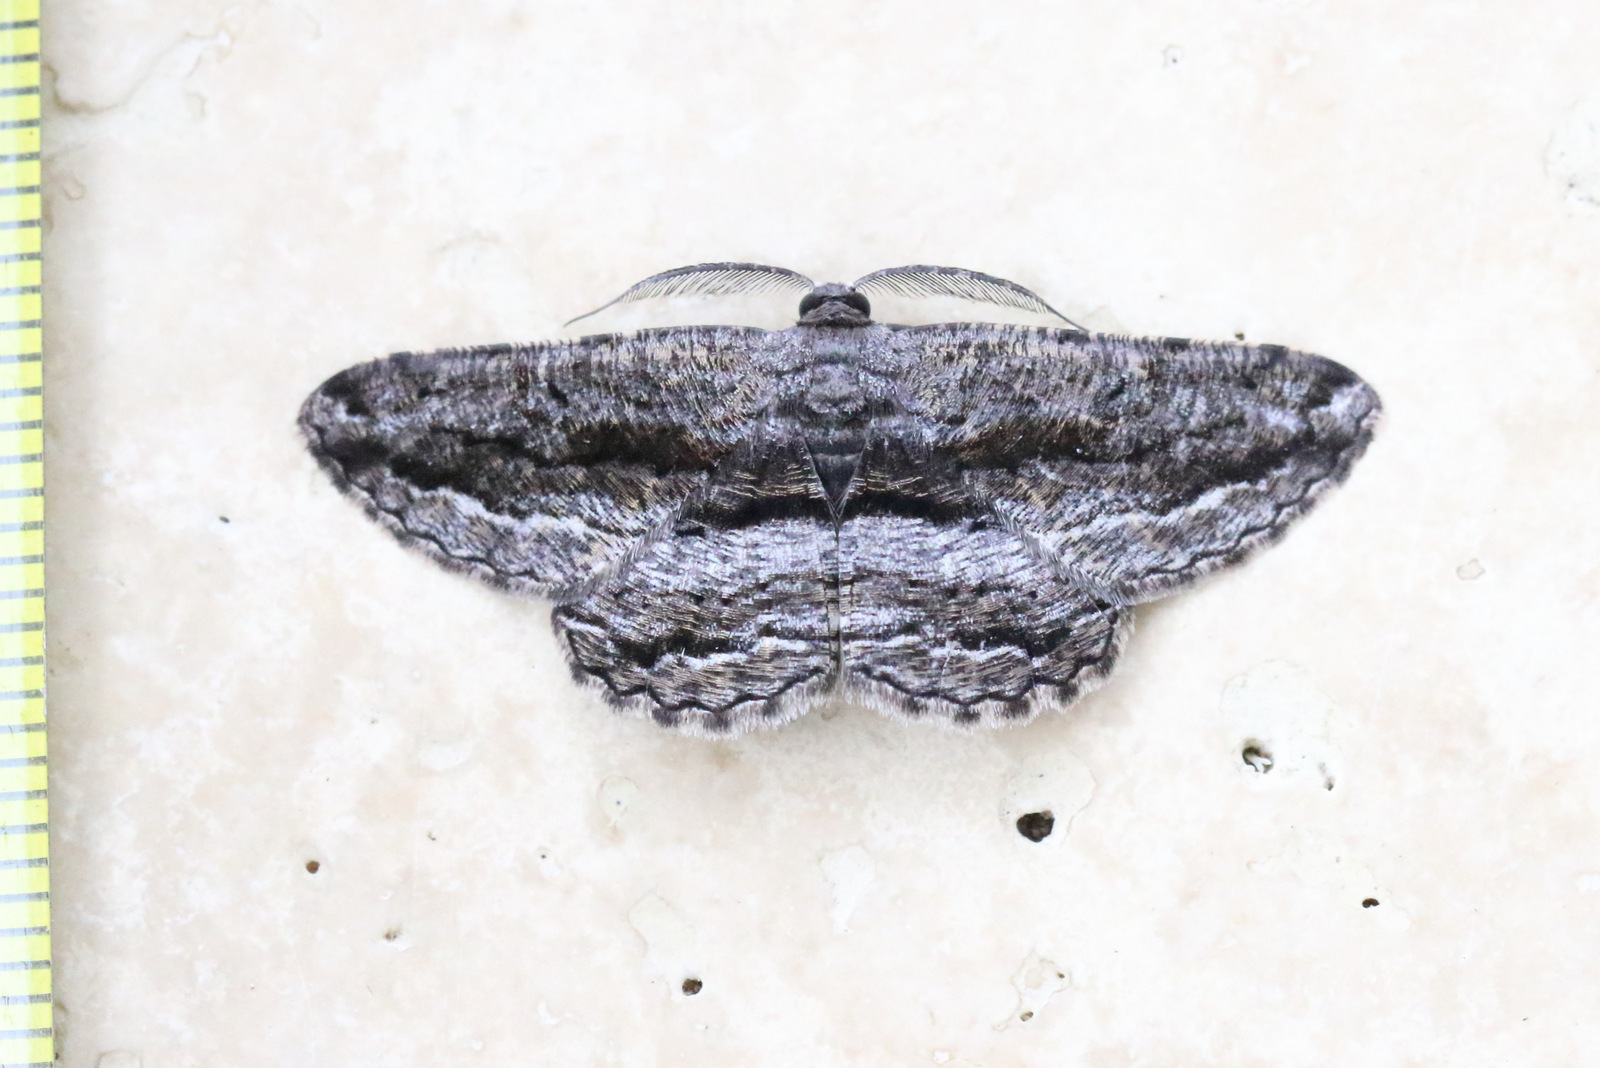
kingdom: Animalia
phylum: Arthropoda
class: Insecta
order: Lepidoptera
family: Geometridae
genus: Scioglyptis
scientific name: Scioglyptis canescaria
